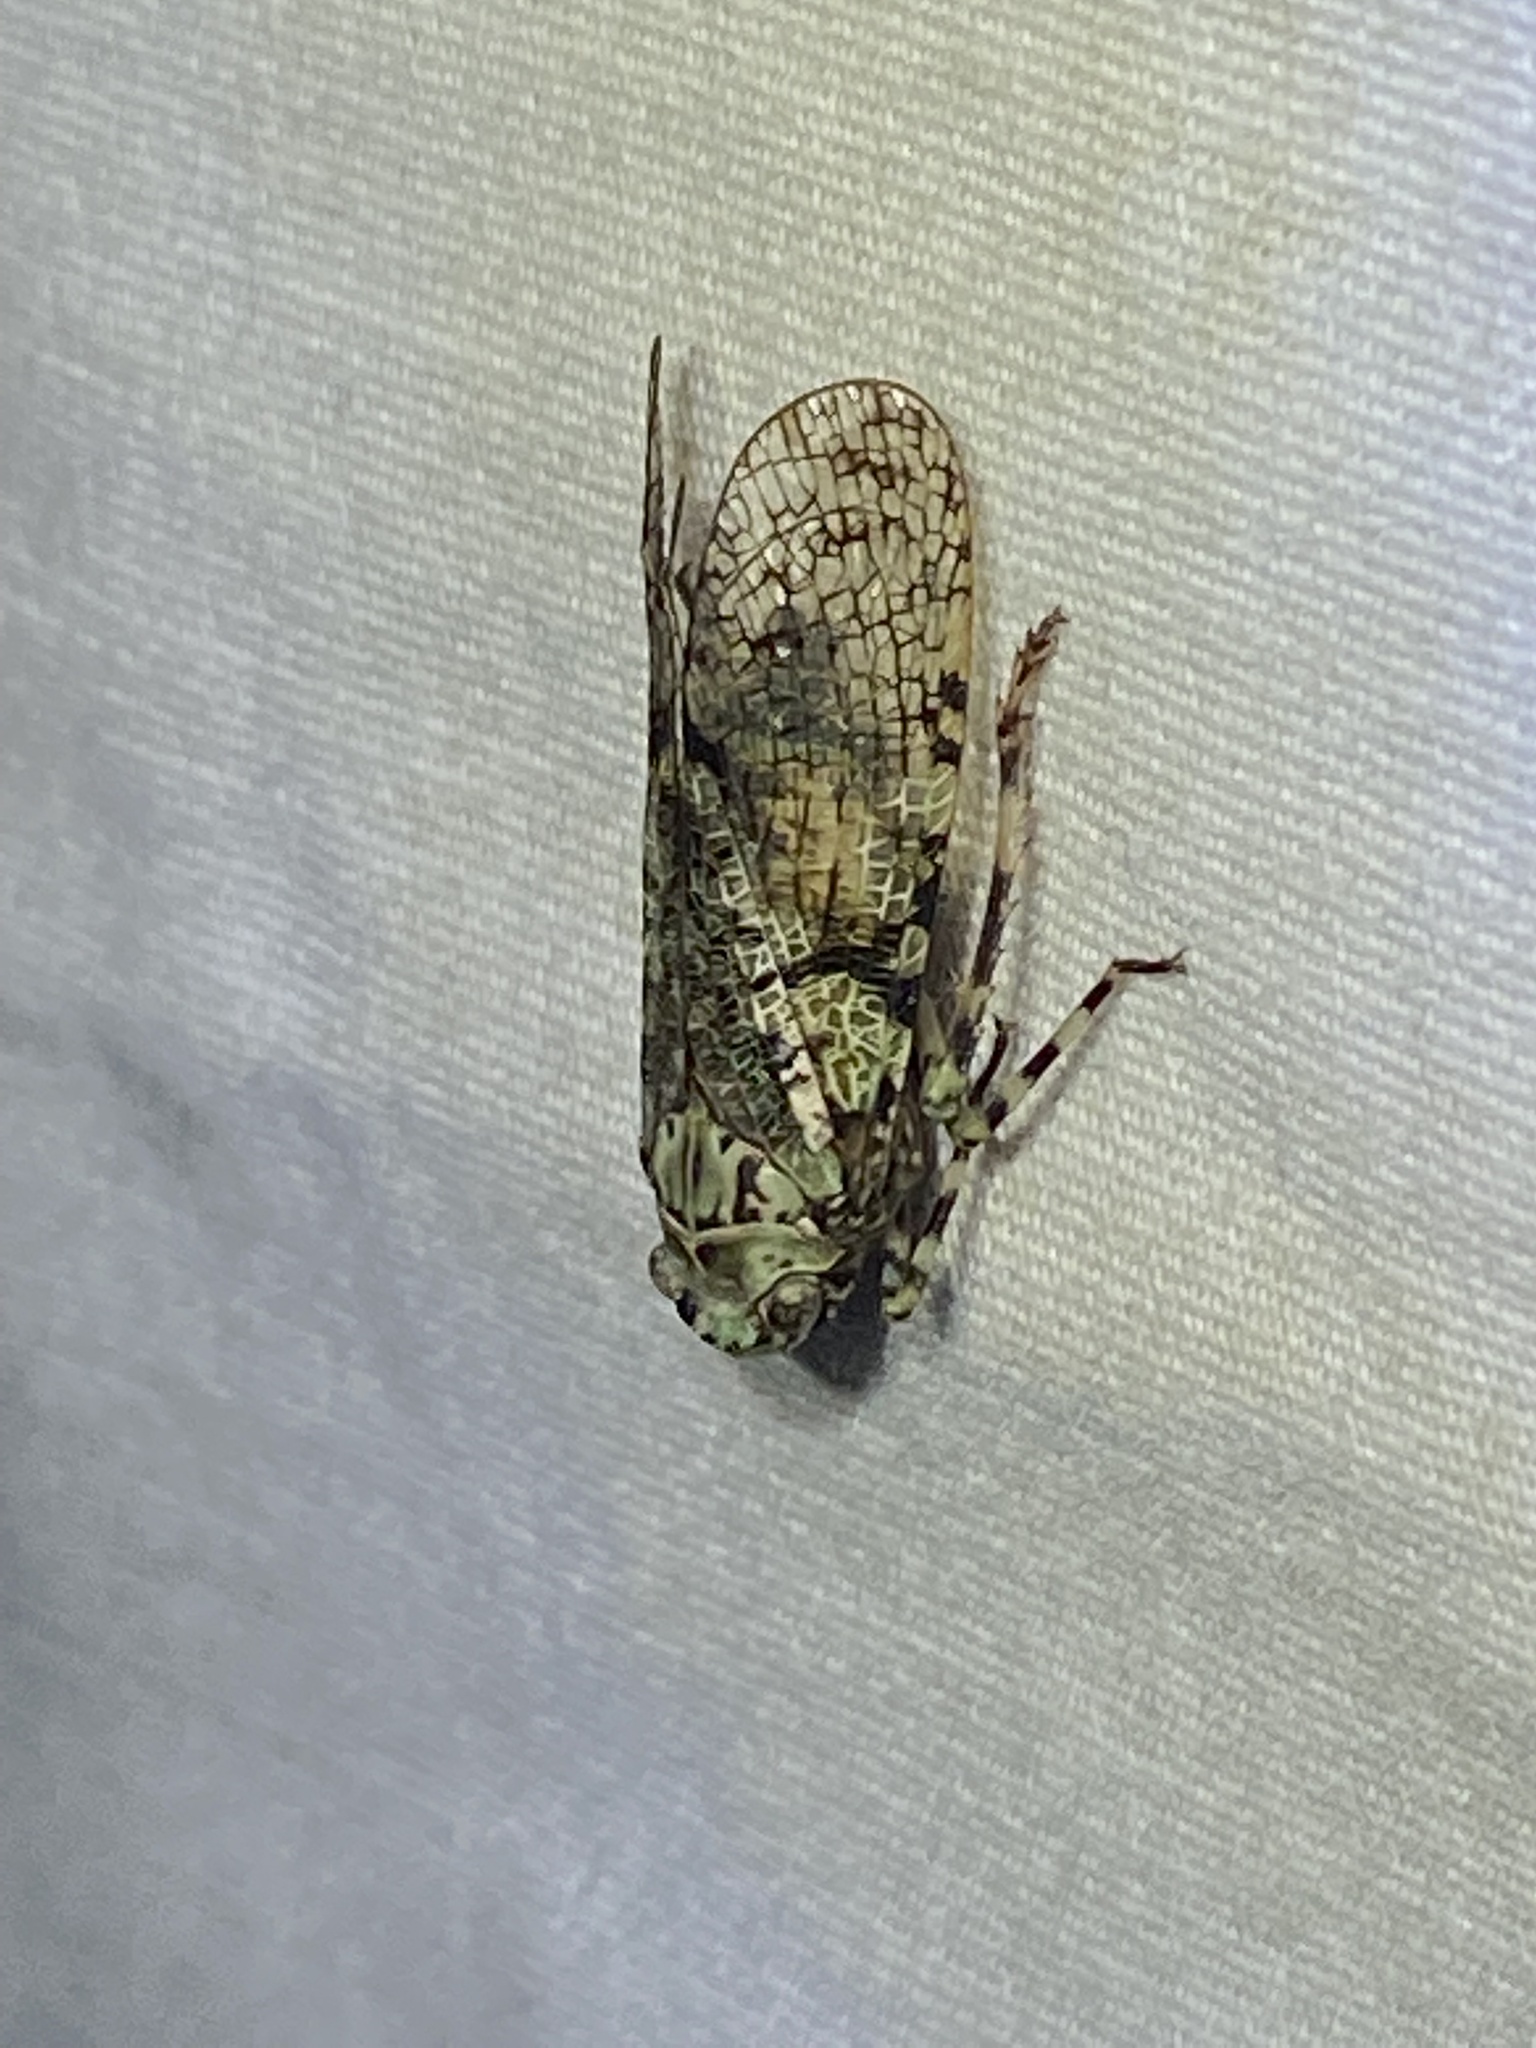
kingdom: Animalia
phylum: Arthropoda
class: Insecta
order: Hemiptera
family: Fulgoridae
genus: Calyptoproctus
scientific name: Calyptoproctus marmoratus
